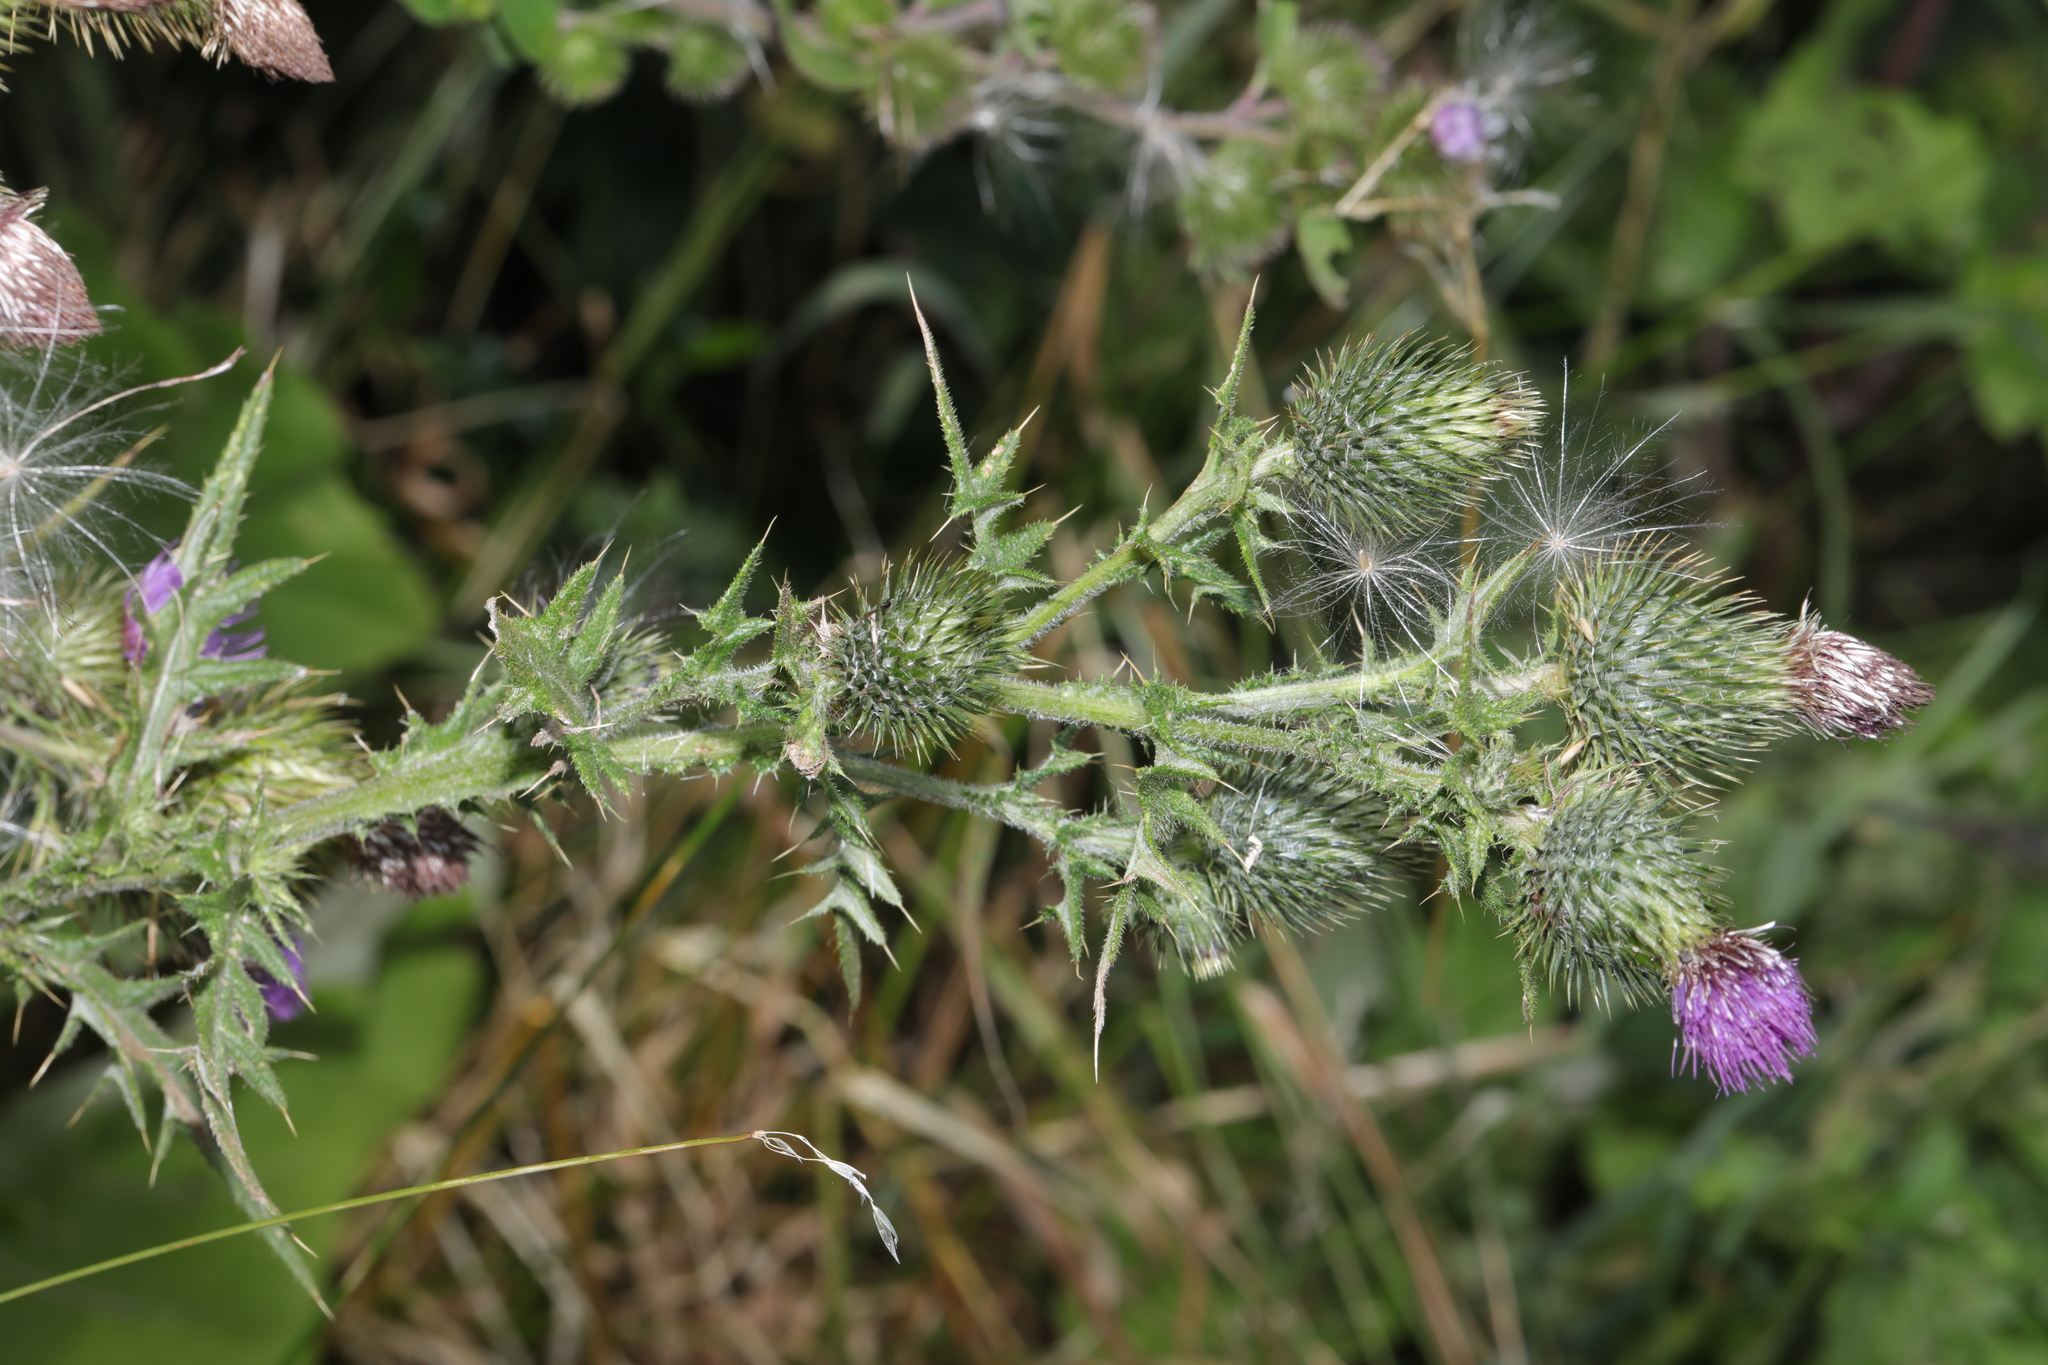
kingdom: Plantae
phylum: Tracheophyta
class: Magnoliopsida
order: Asterales
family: Asteraceae
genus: Cirsium
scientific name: Cirsium vulgare
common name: Bull thistle
